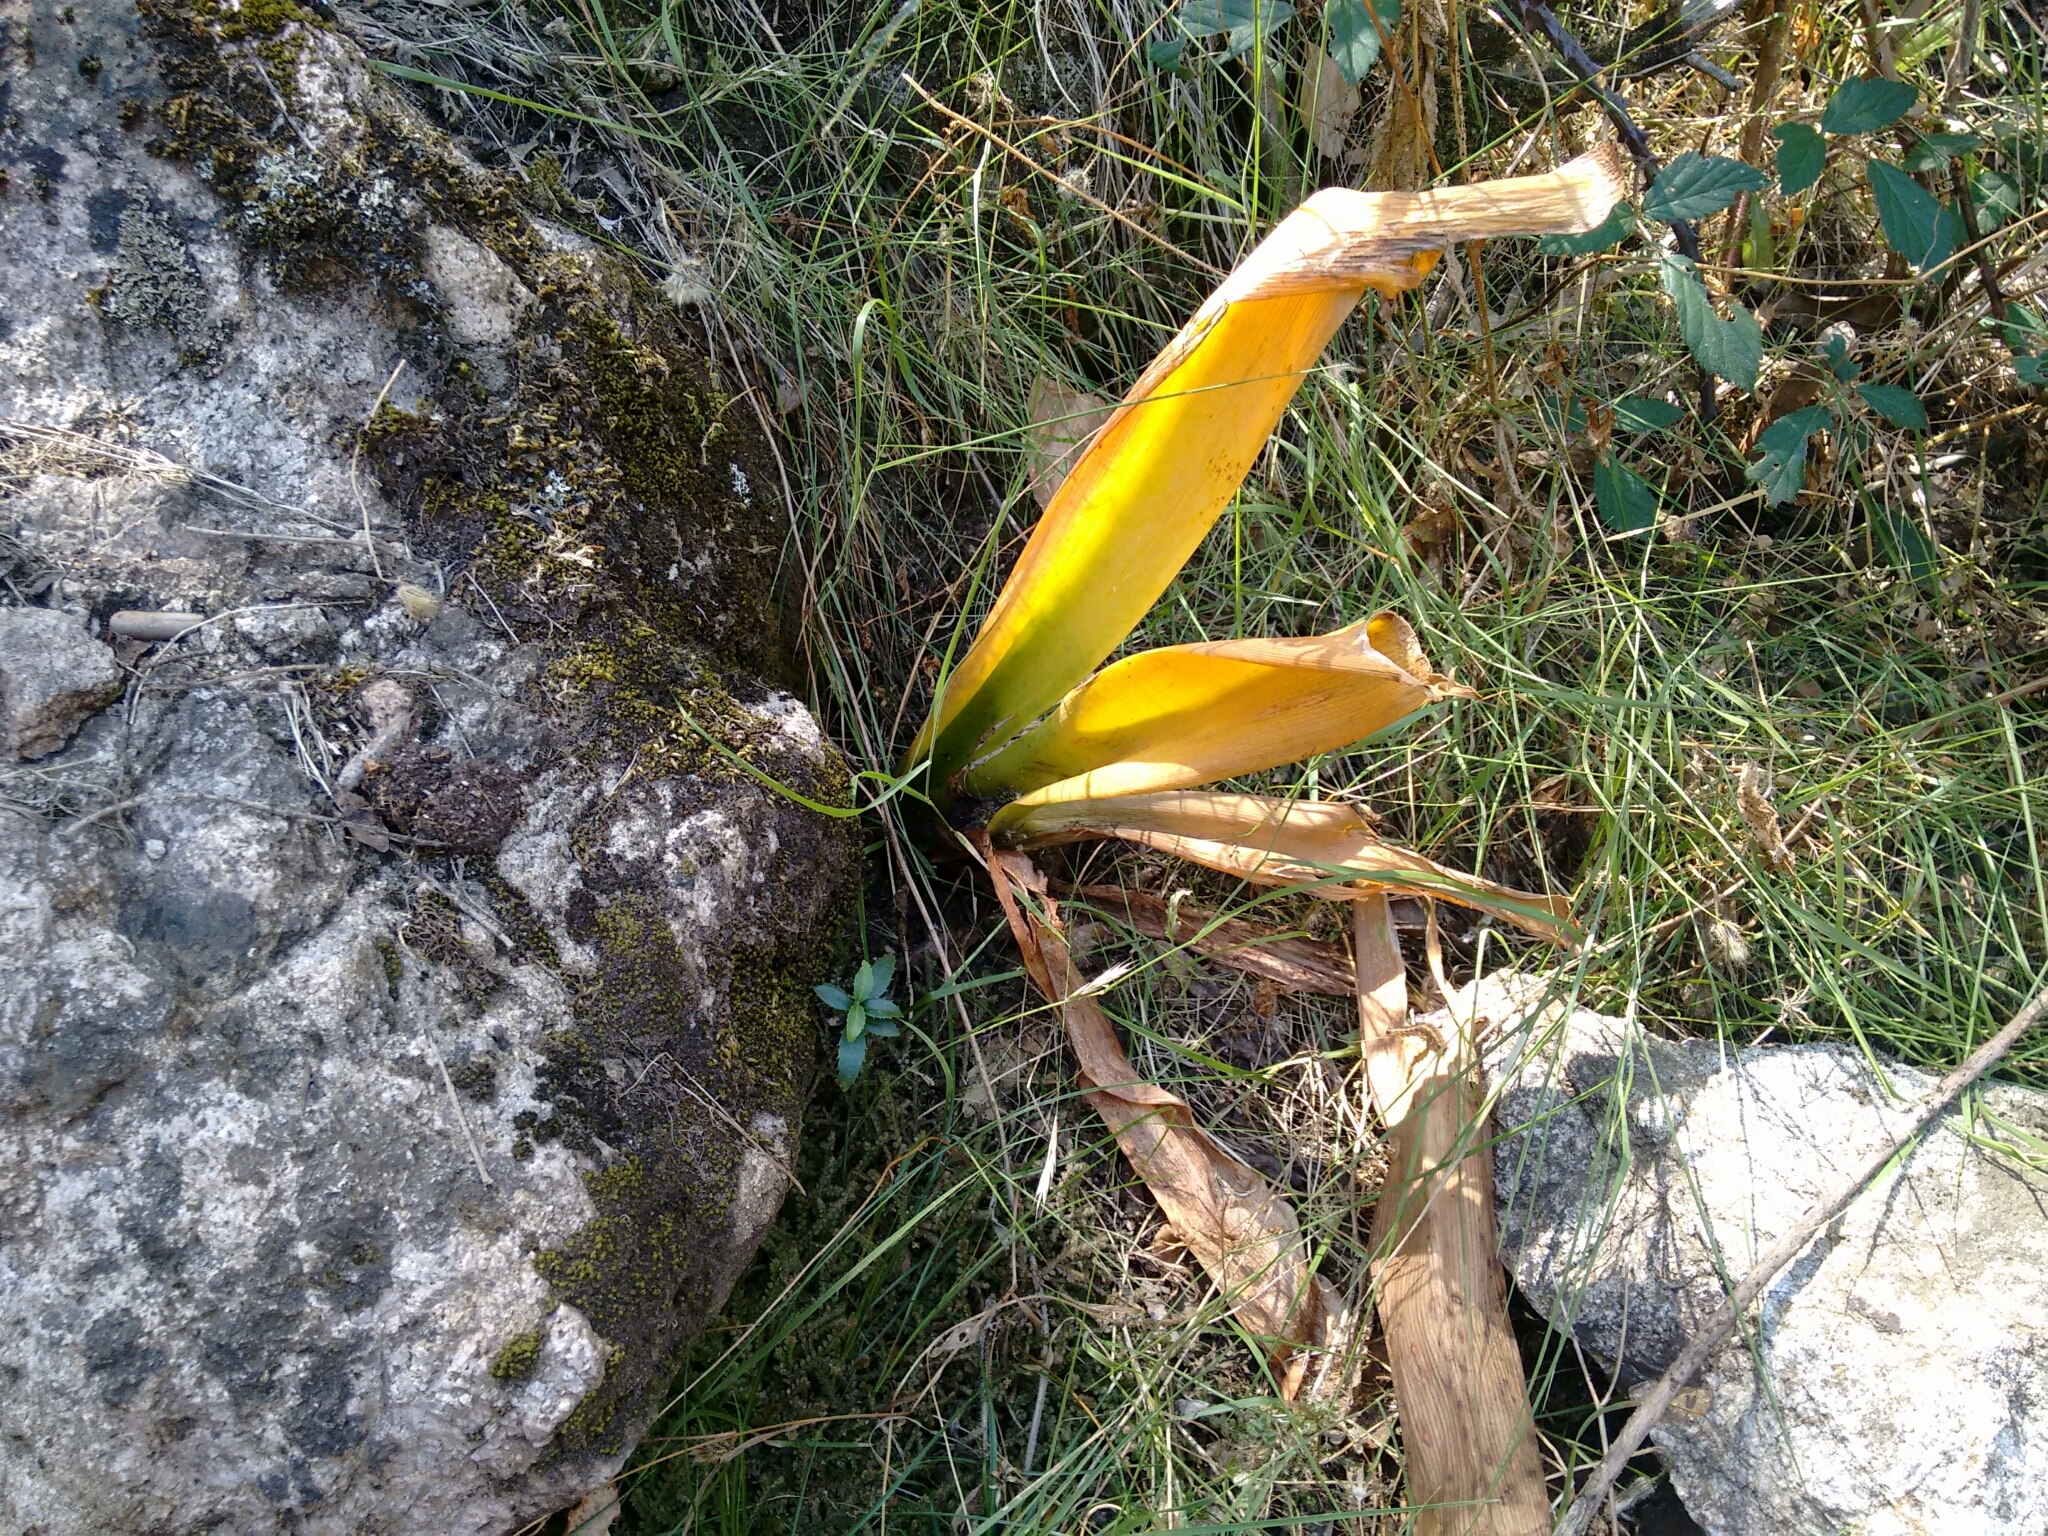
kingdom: Plantae
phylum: Tracheophyta
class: Liliopsida
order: Asparagales
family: Amaryllidaceae
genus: Pancratium
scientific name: Pancratium illyricum
